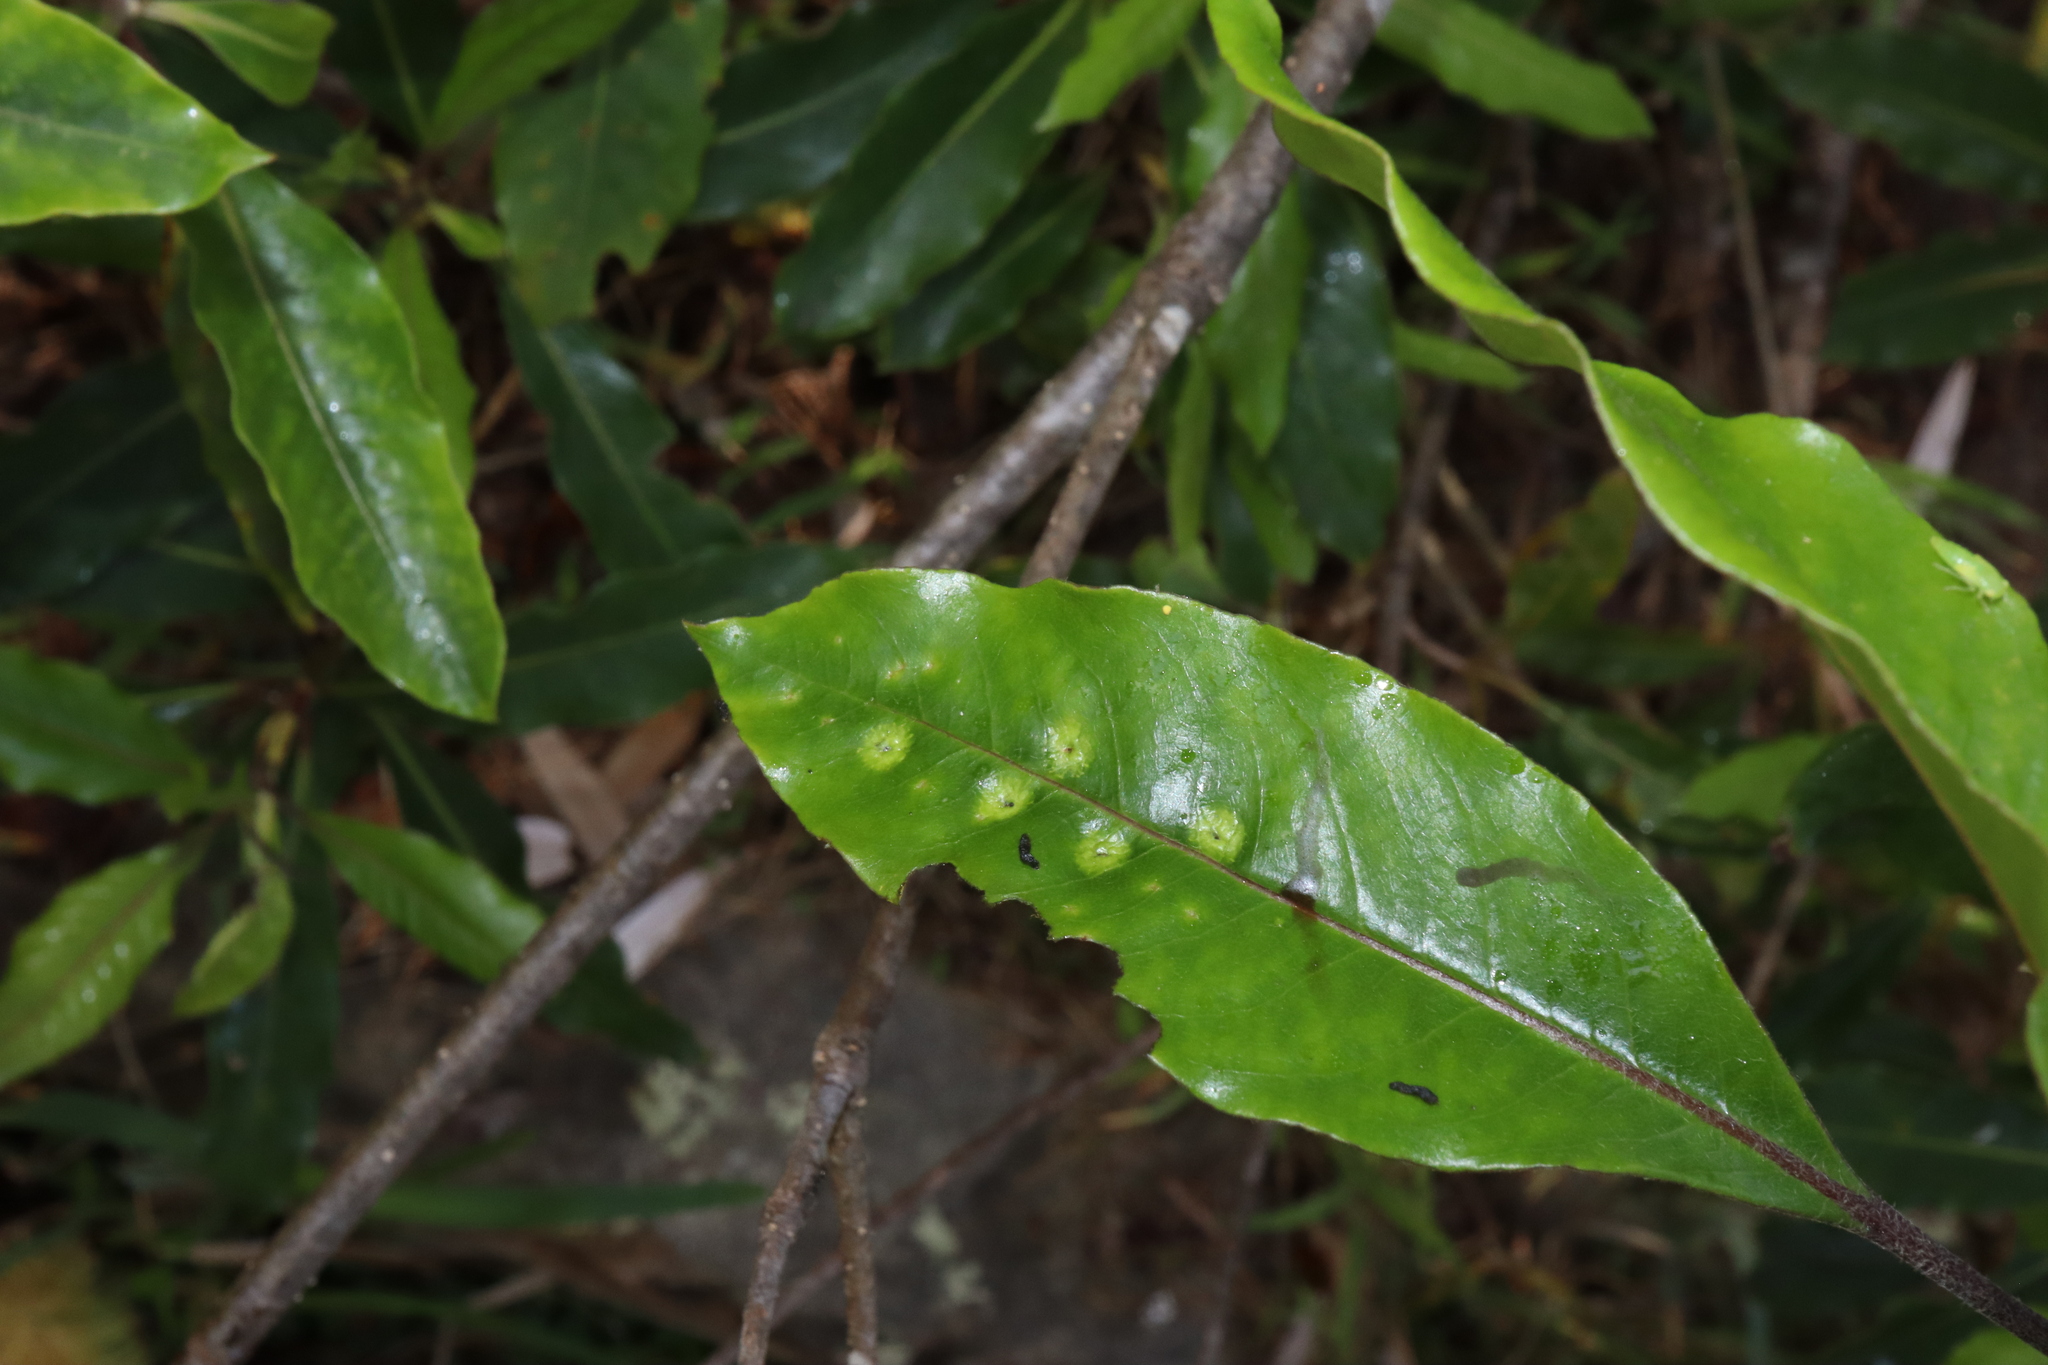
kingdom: Animalia
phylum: Arthropoda
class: Insecta
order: Diptera
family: Agromyzidae
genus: Phytoliriomyza
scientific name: Phytoliriomyza pittosporophylli
